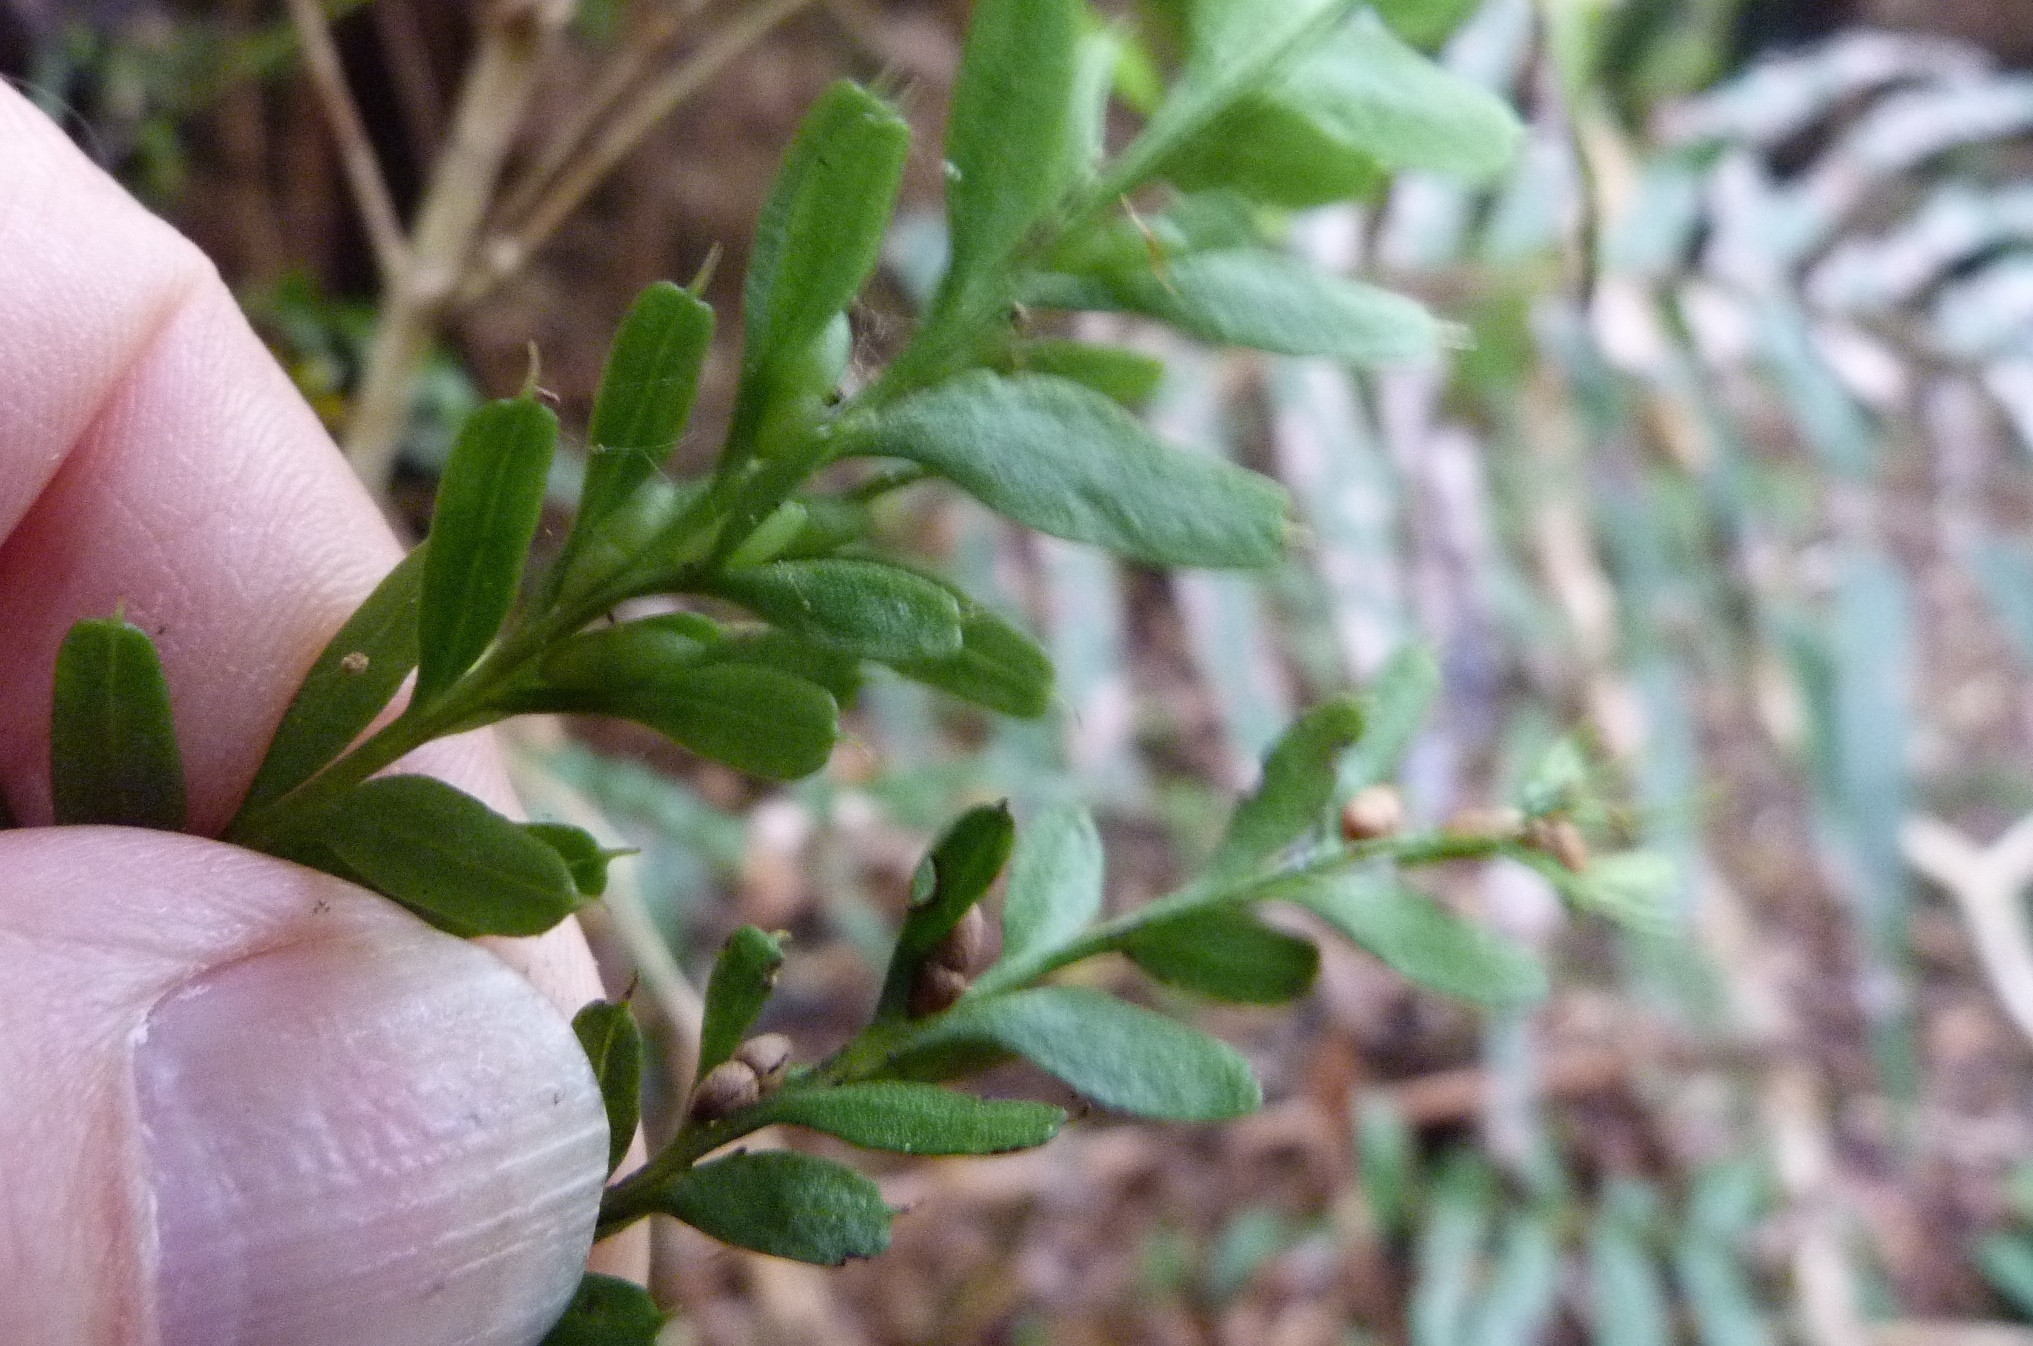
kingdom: Plantae
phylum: Tracheophyta
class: Polypodiopsida
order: Psilotales
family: Psilotaceae
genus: Tmesipteris
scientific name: Tmesipteris tannensis
